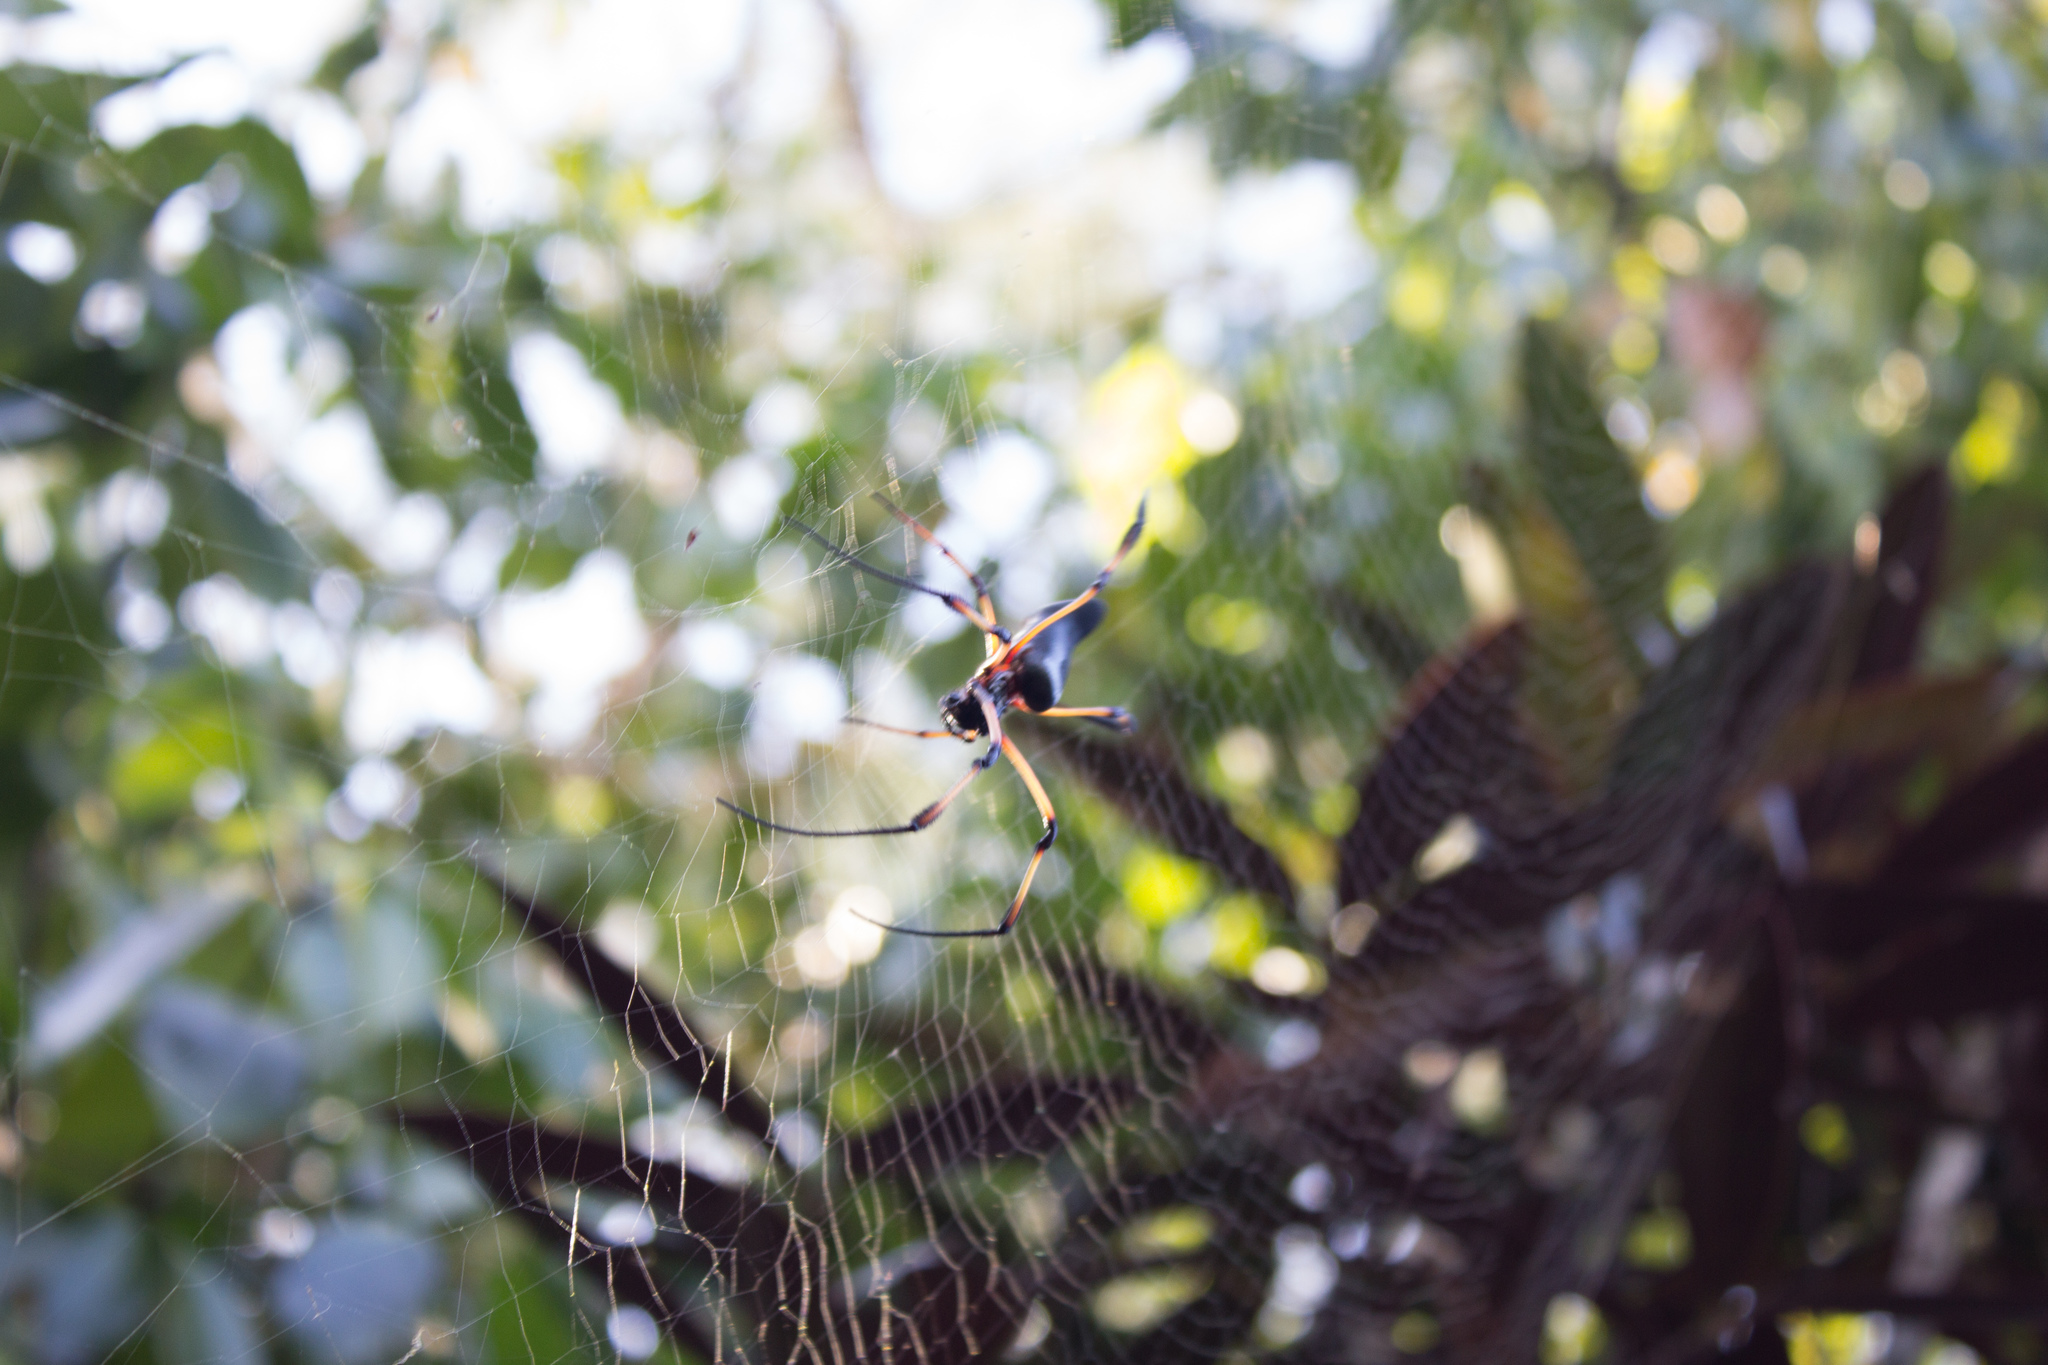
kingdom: Animalia
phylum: Arthropoda
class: Arachnida
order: Araneae
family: Araneidae
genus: Trichonephila
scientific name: Trichonephila inaurata
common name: Red-legged golden orb weaver
